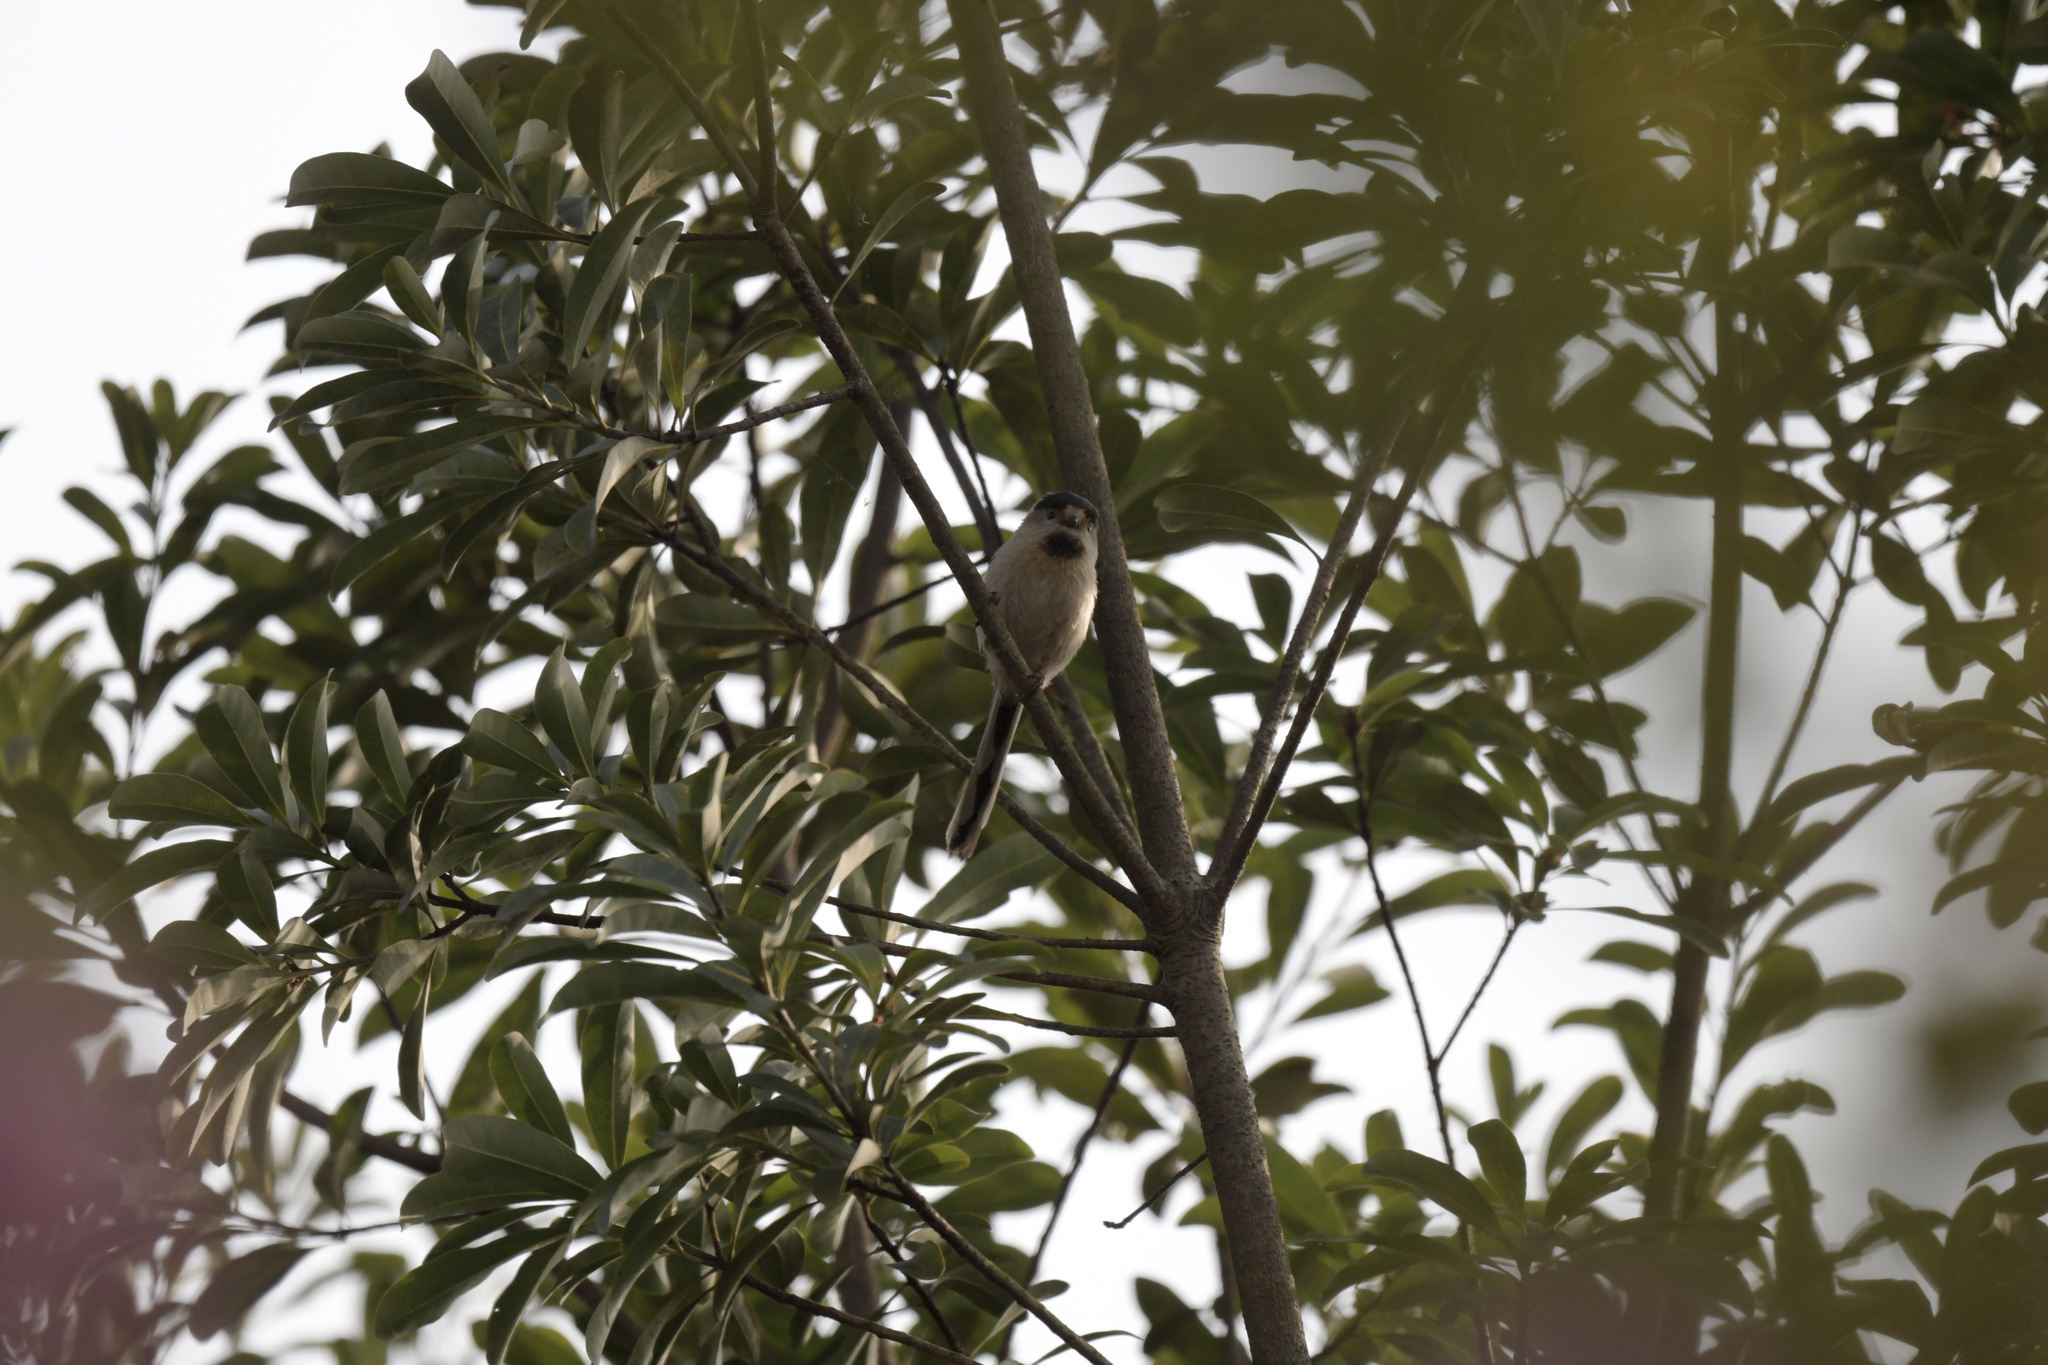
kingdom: Animalia
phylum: Chordata
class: Aves
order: Passeriformes
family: Aegithalidae
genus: Aegithalos
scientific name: Aegithalos glaucogularis
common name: Silver-throated bushtit
